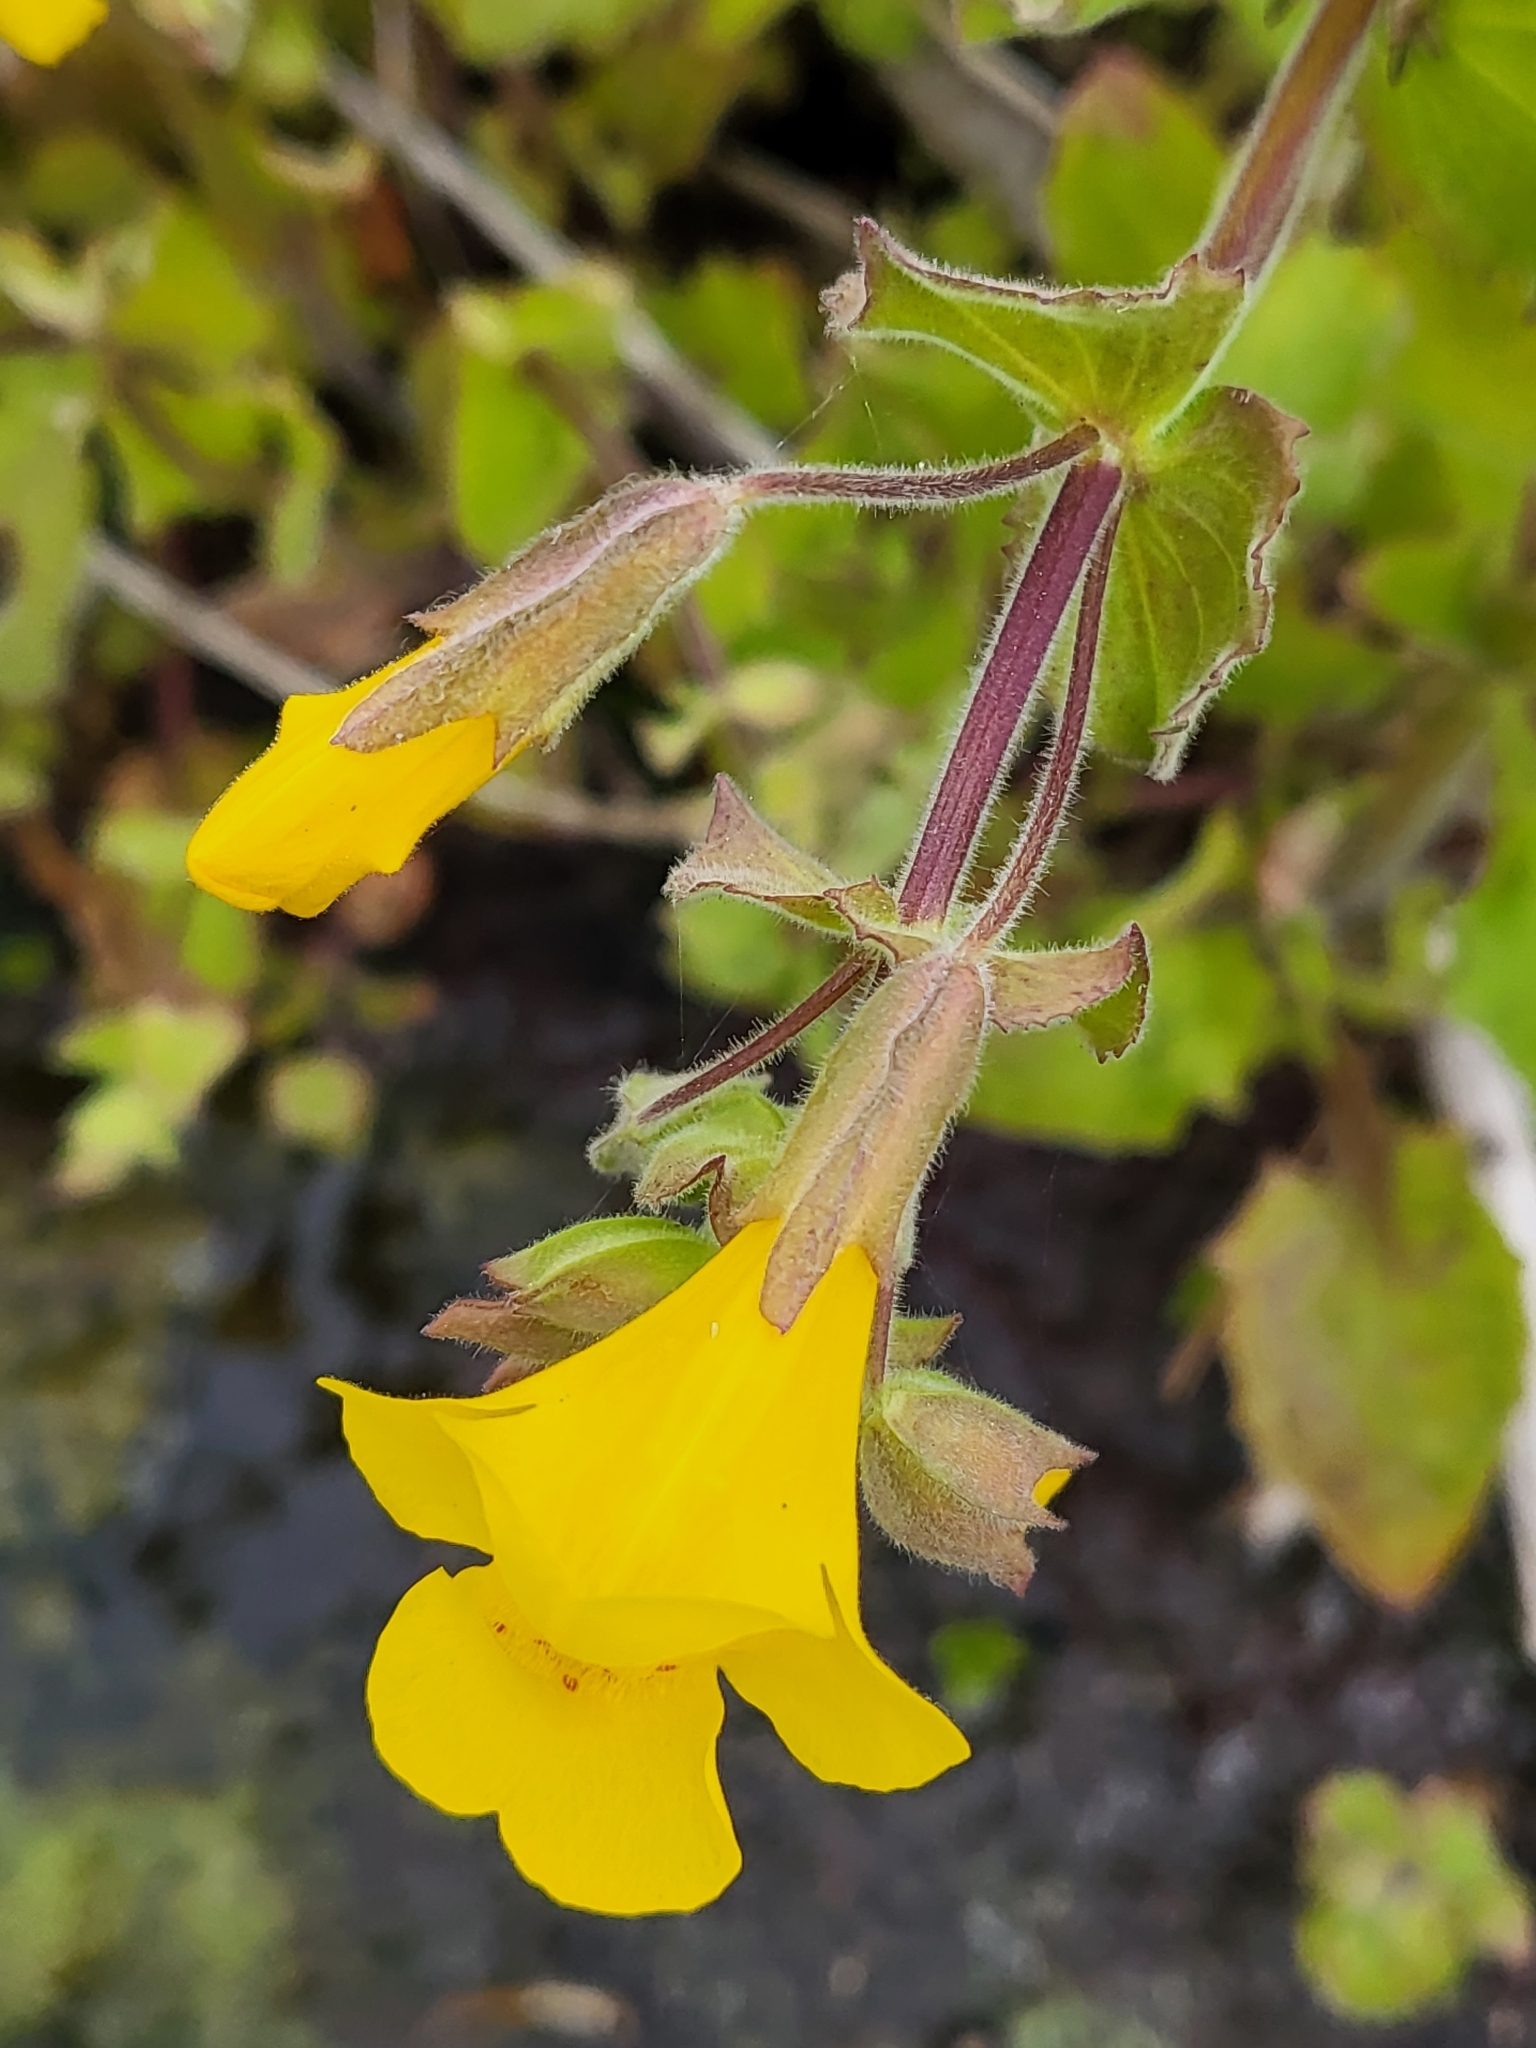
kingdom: Plantae
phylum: Tracheophyta
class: Magnoliopsida
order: Lamiales
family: Phrymaceae
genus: Erythranthe
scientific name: Erythranthe guttata
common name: Monkeyflower
